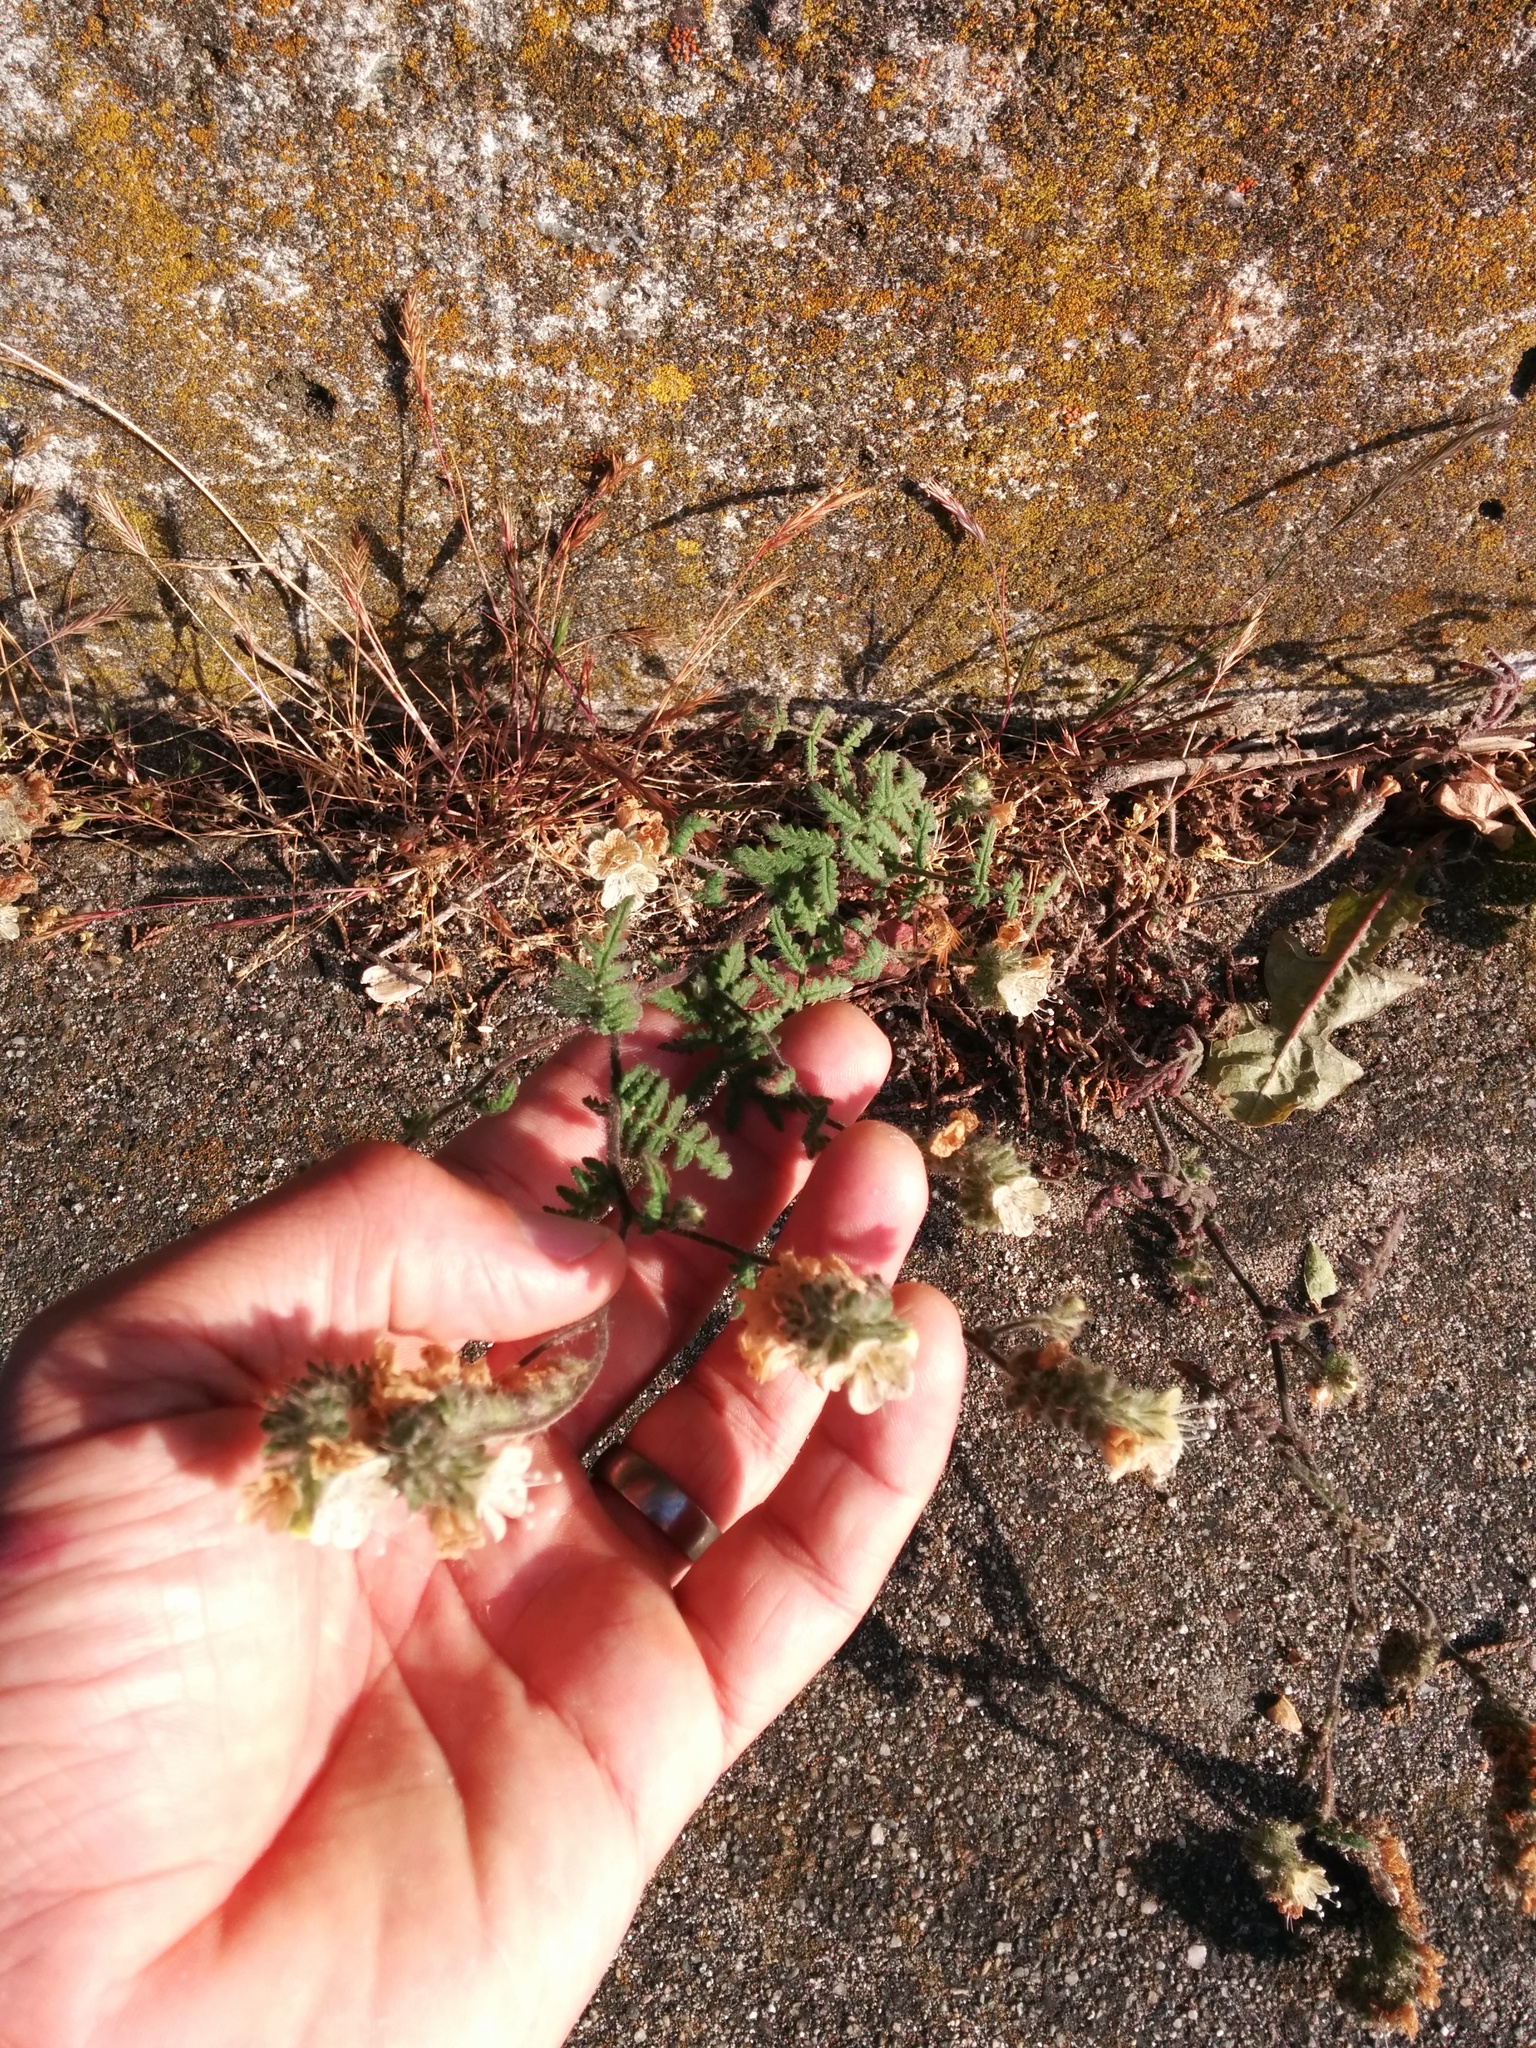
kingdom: Plantae
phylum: Tracheophyta
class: Magnoliopsida
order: Boraginales
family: Hydrophyllaceae
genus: Phacelia
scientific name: Phacelia distans
